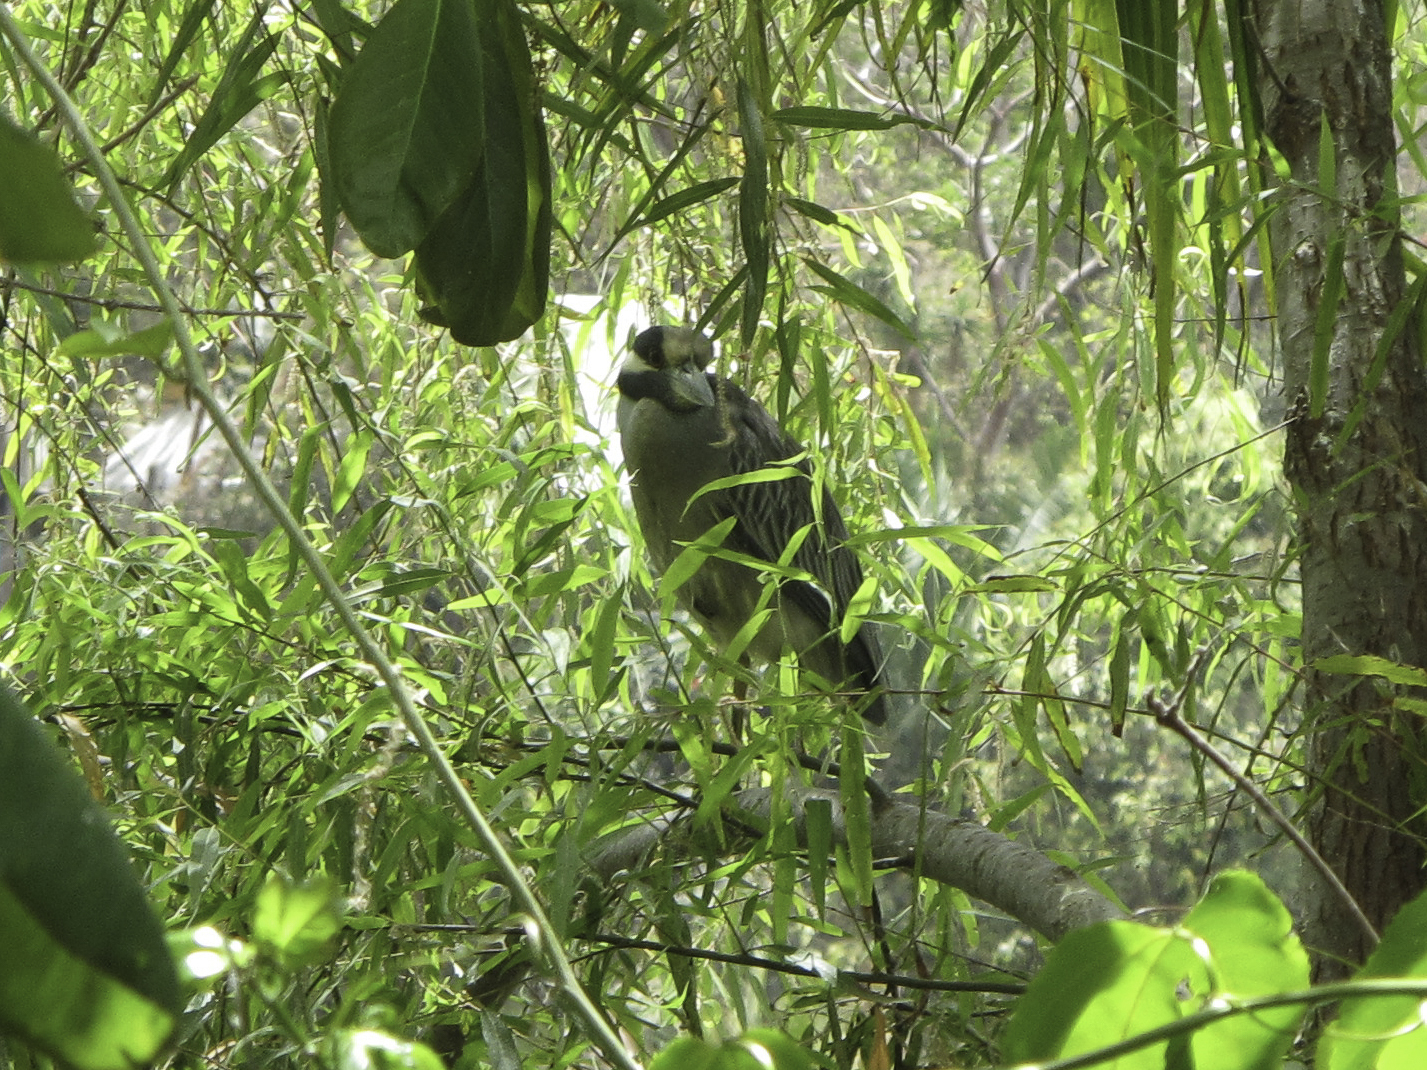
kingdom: Animalia
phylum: Chordata
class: Aves
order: Pelecaniformes
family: Ardeidae
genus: Nyctanassa
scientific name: Nyctanassa violacea
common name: Yellow-crowned night heron
